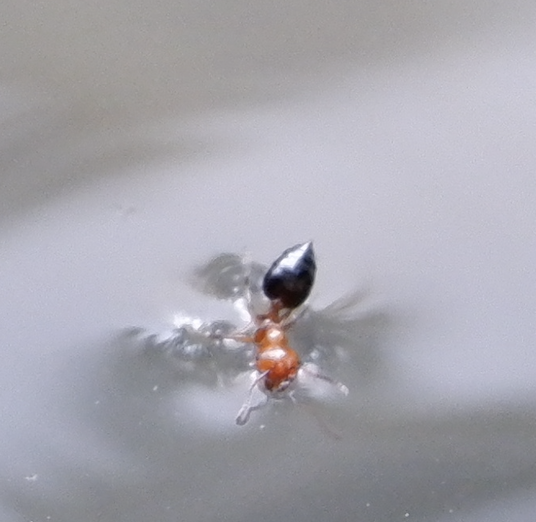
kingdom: Animalia
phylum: Arthropoda
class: Insecta
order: Hymenoptera
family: Formicidae
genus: Crematogaster
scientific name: Crematogaster laeviuscula
